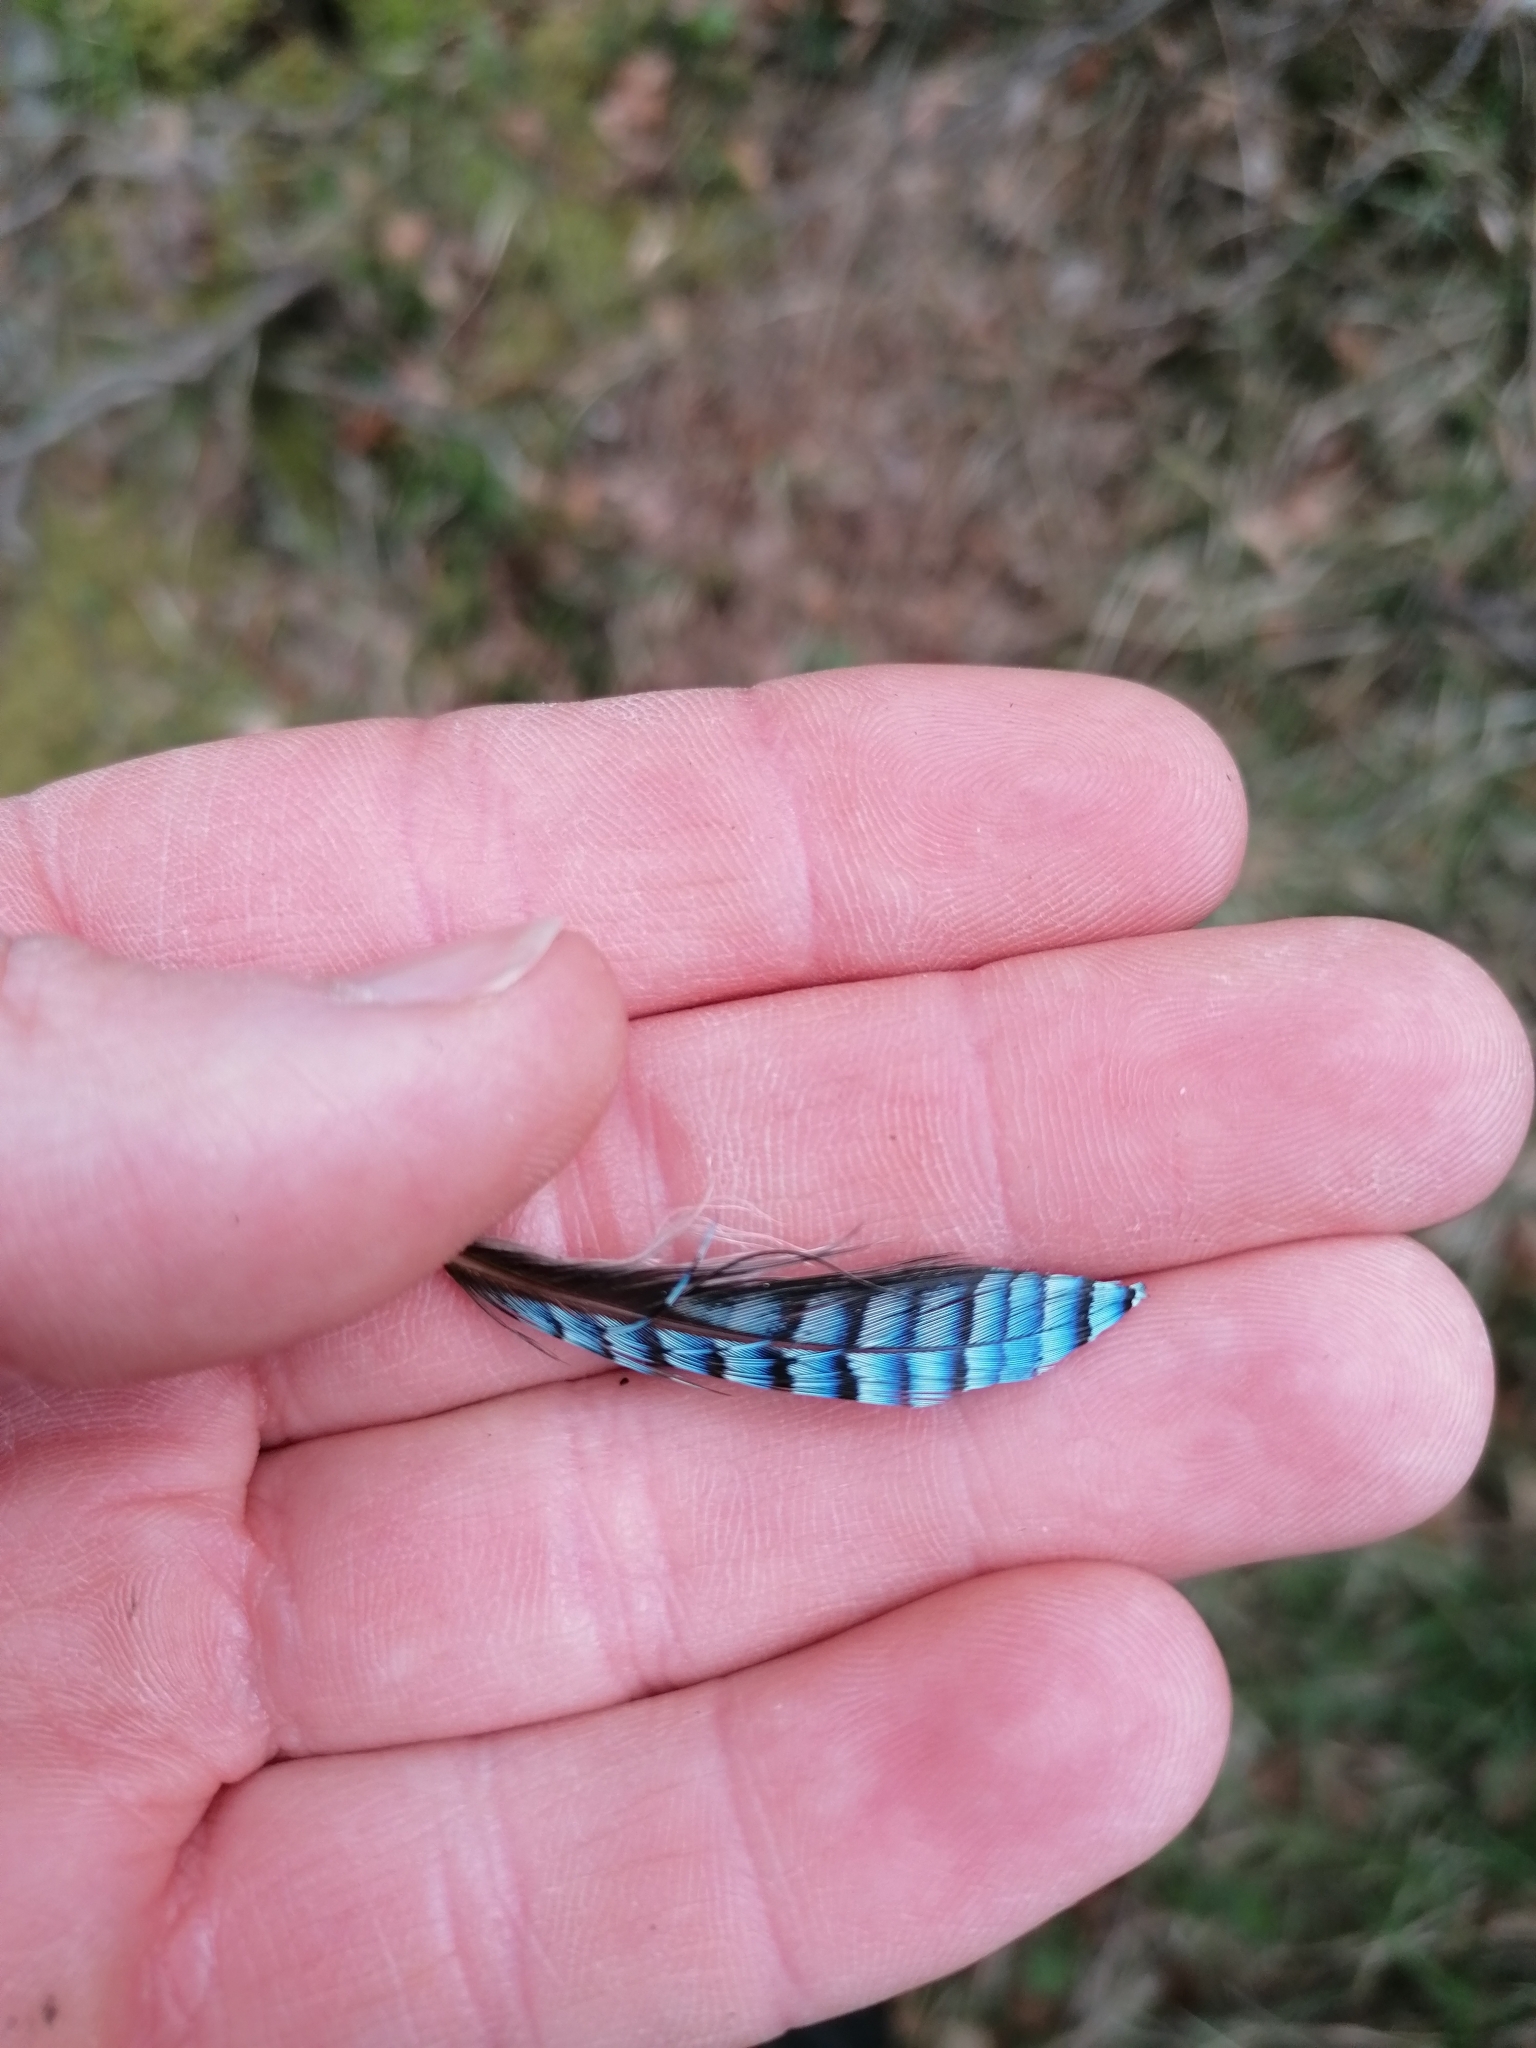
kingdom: Animalia
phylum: Chordata
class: Aves
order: Passeriformes
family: Corvidae
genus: Garrulus
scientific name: Garrulus glandarius
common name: Eurasian jay
